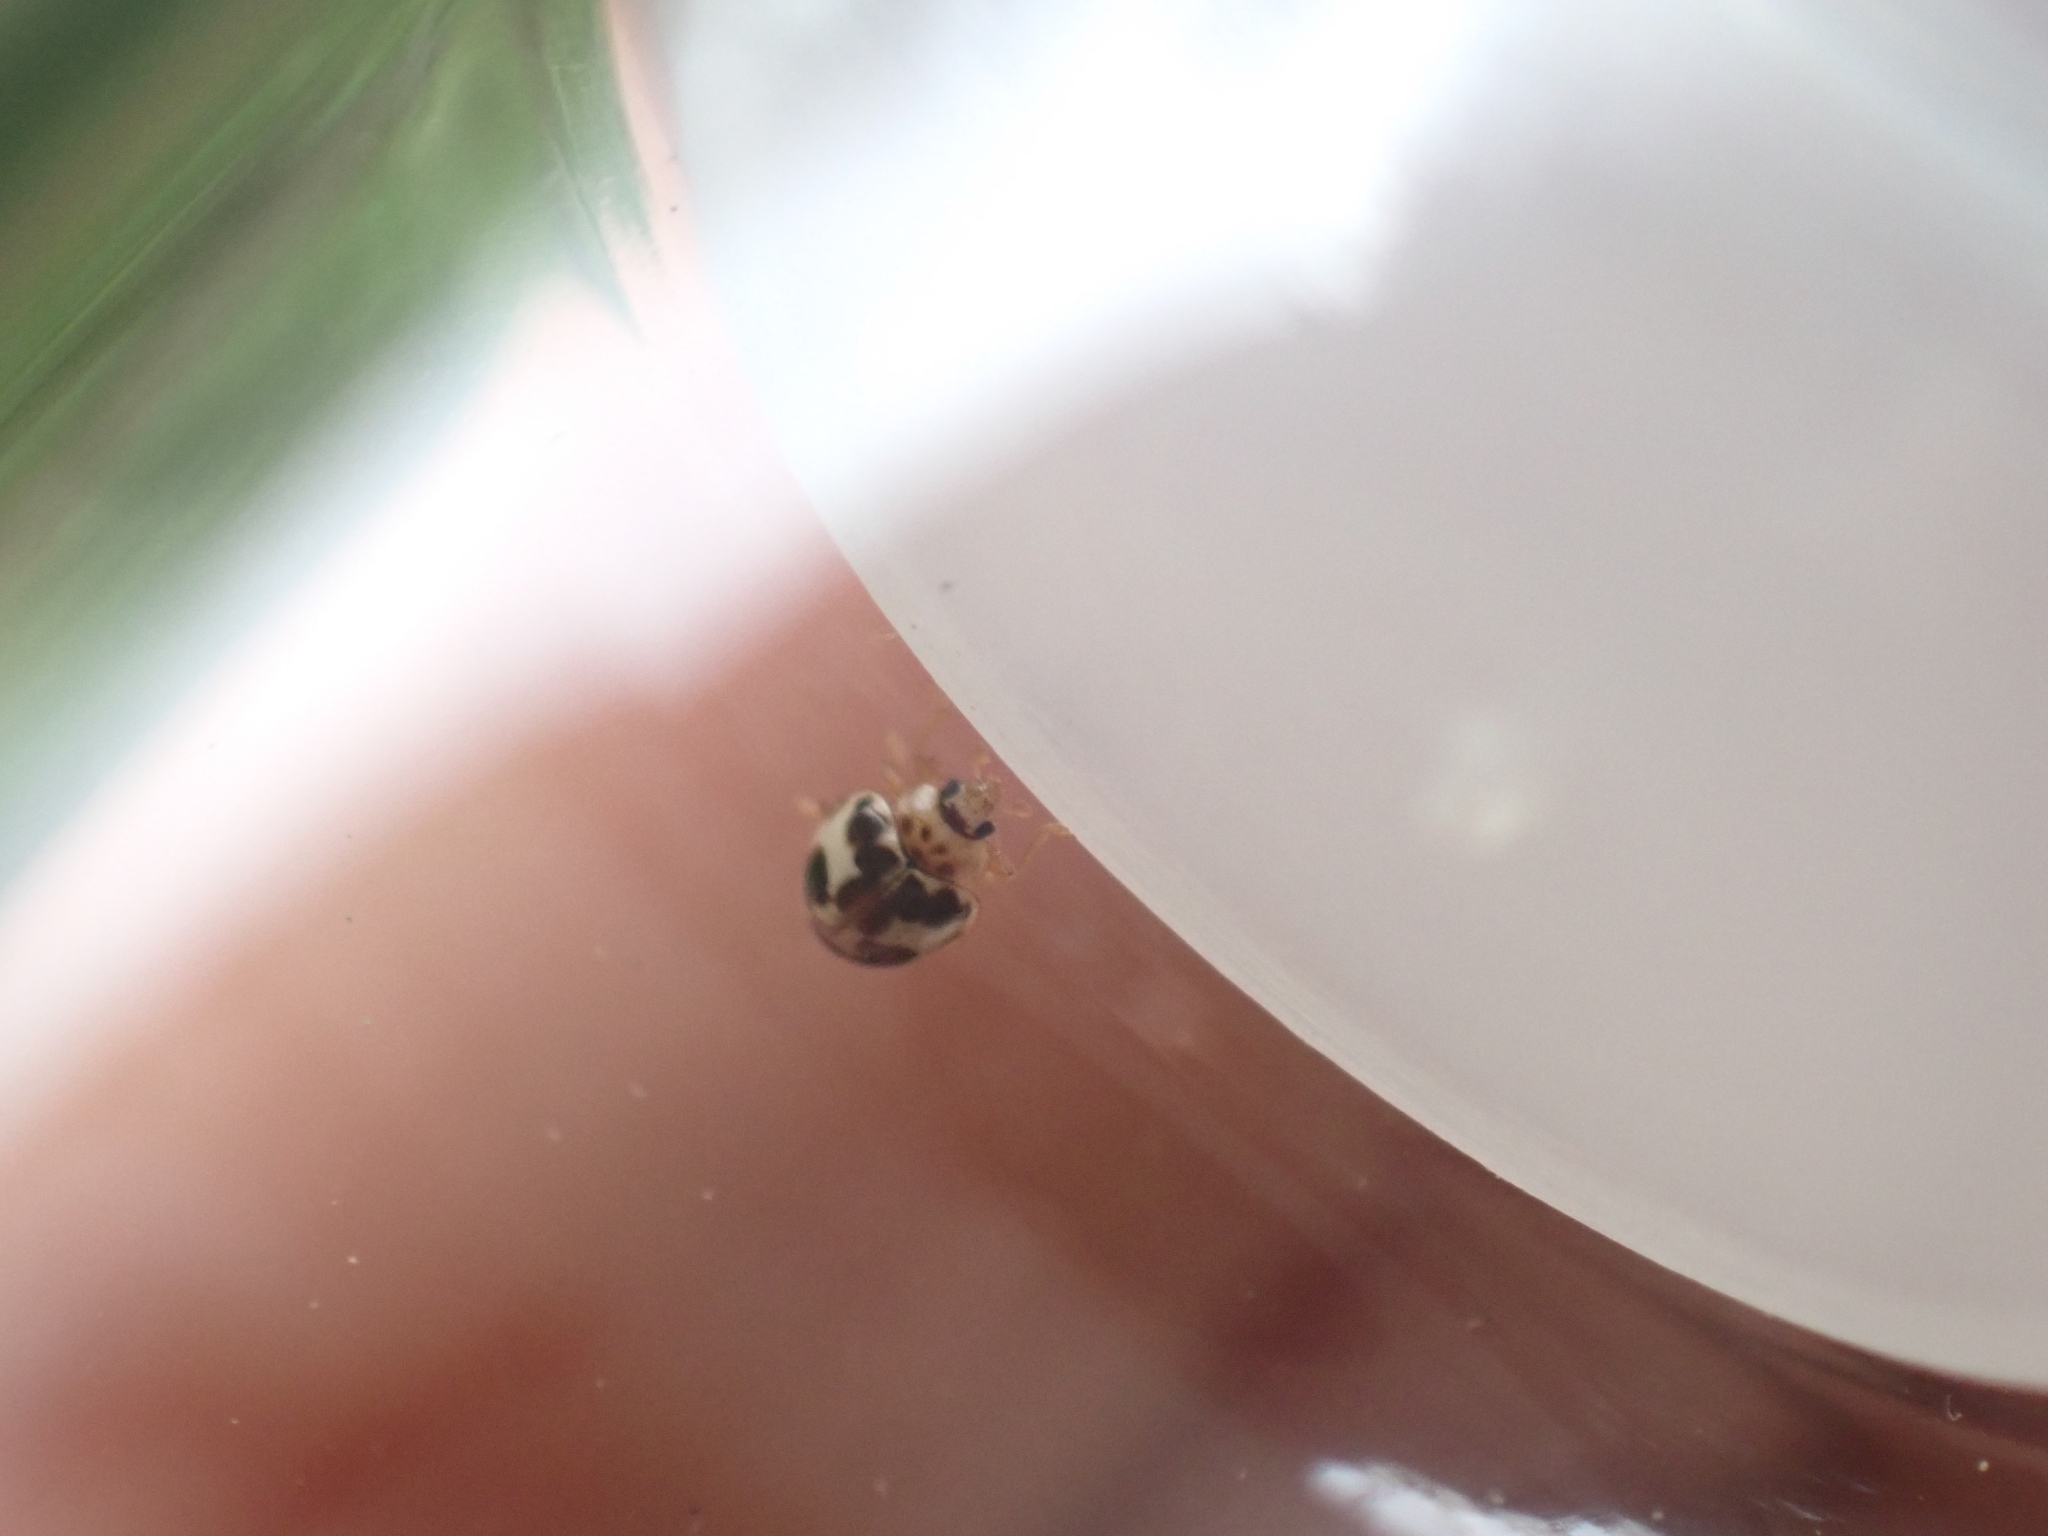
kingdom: Animalia
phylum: Arthropoda
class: Insecta
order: Coleoptera
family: Coccinellidae
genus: Psyllobora
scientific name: Psyllobora borealis
